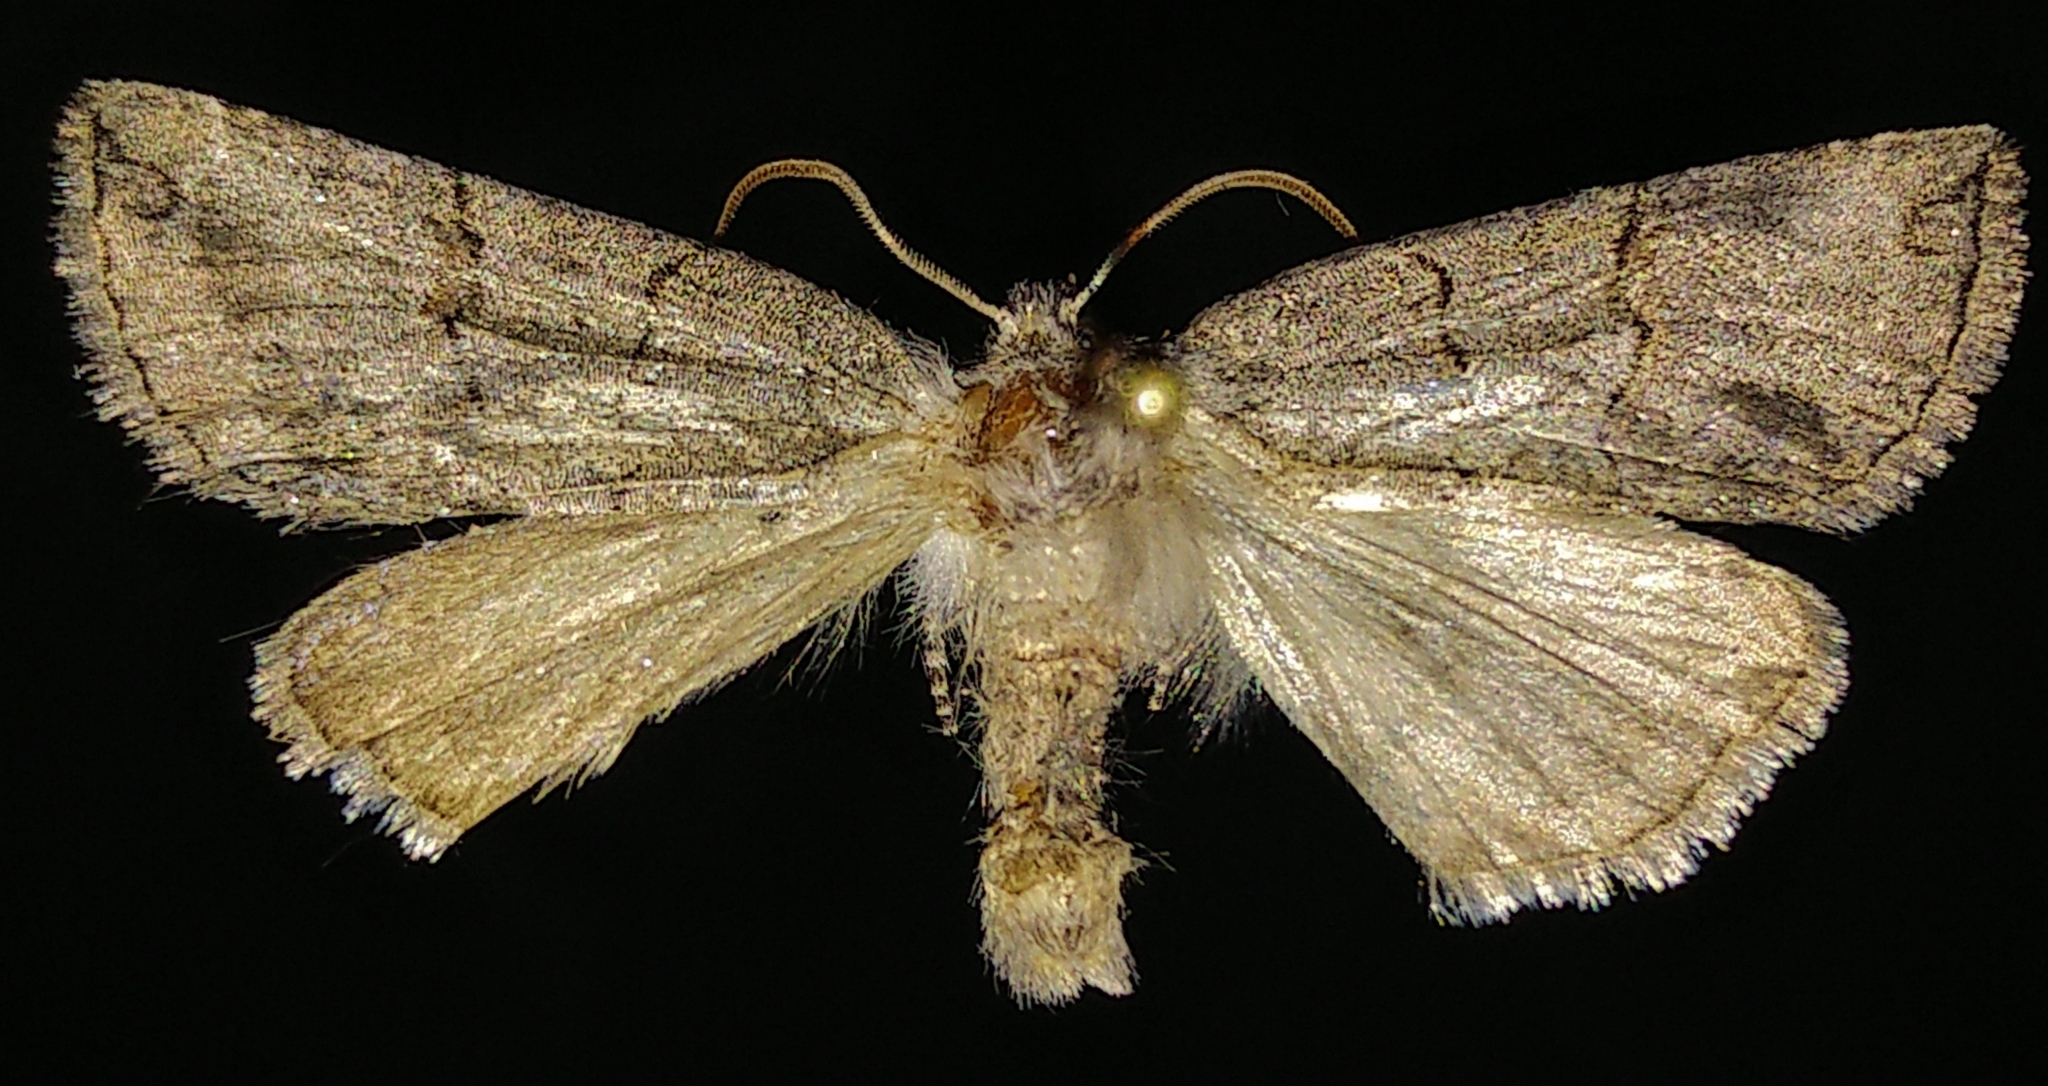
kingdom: Animalia
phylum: Arthropoda
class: Insecta
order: Lepidoptera
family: Drepanidae
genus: Ceranemota
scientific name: Ceranemota albertae
